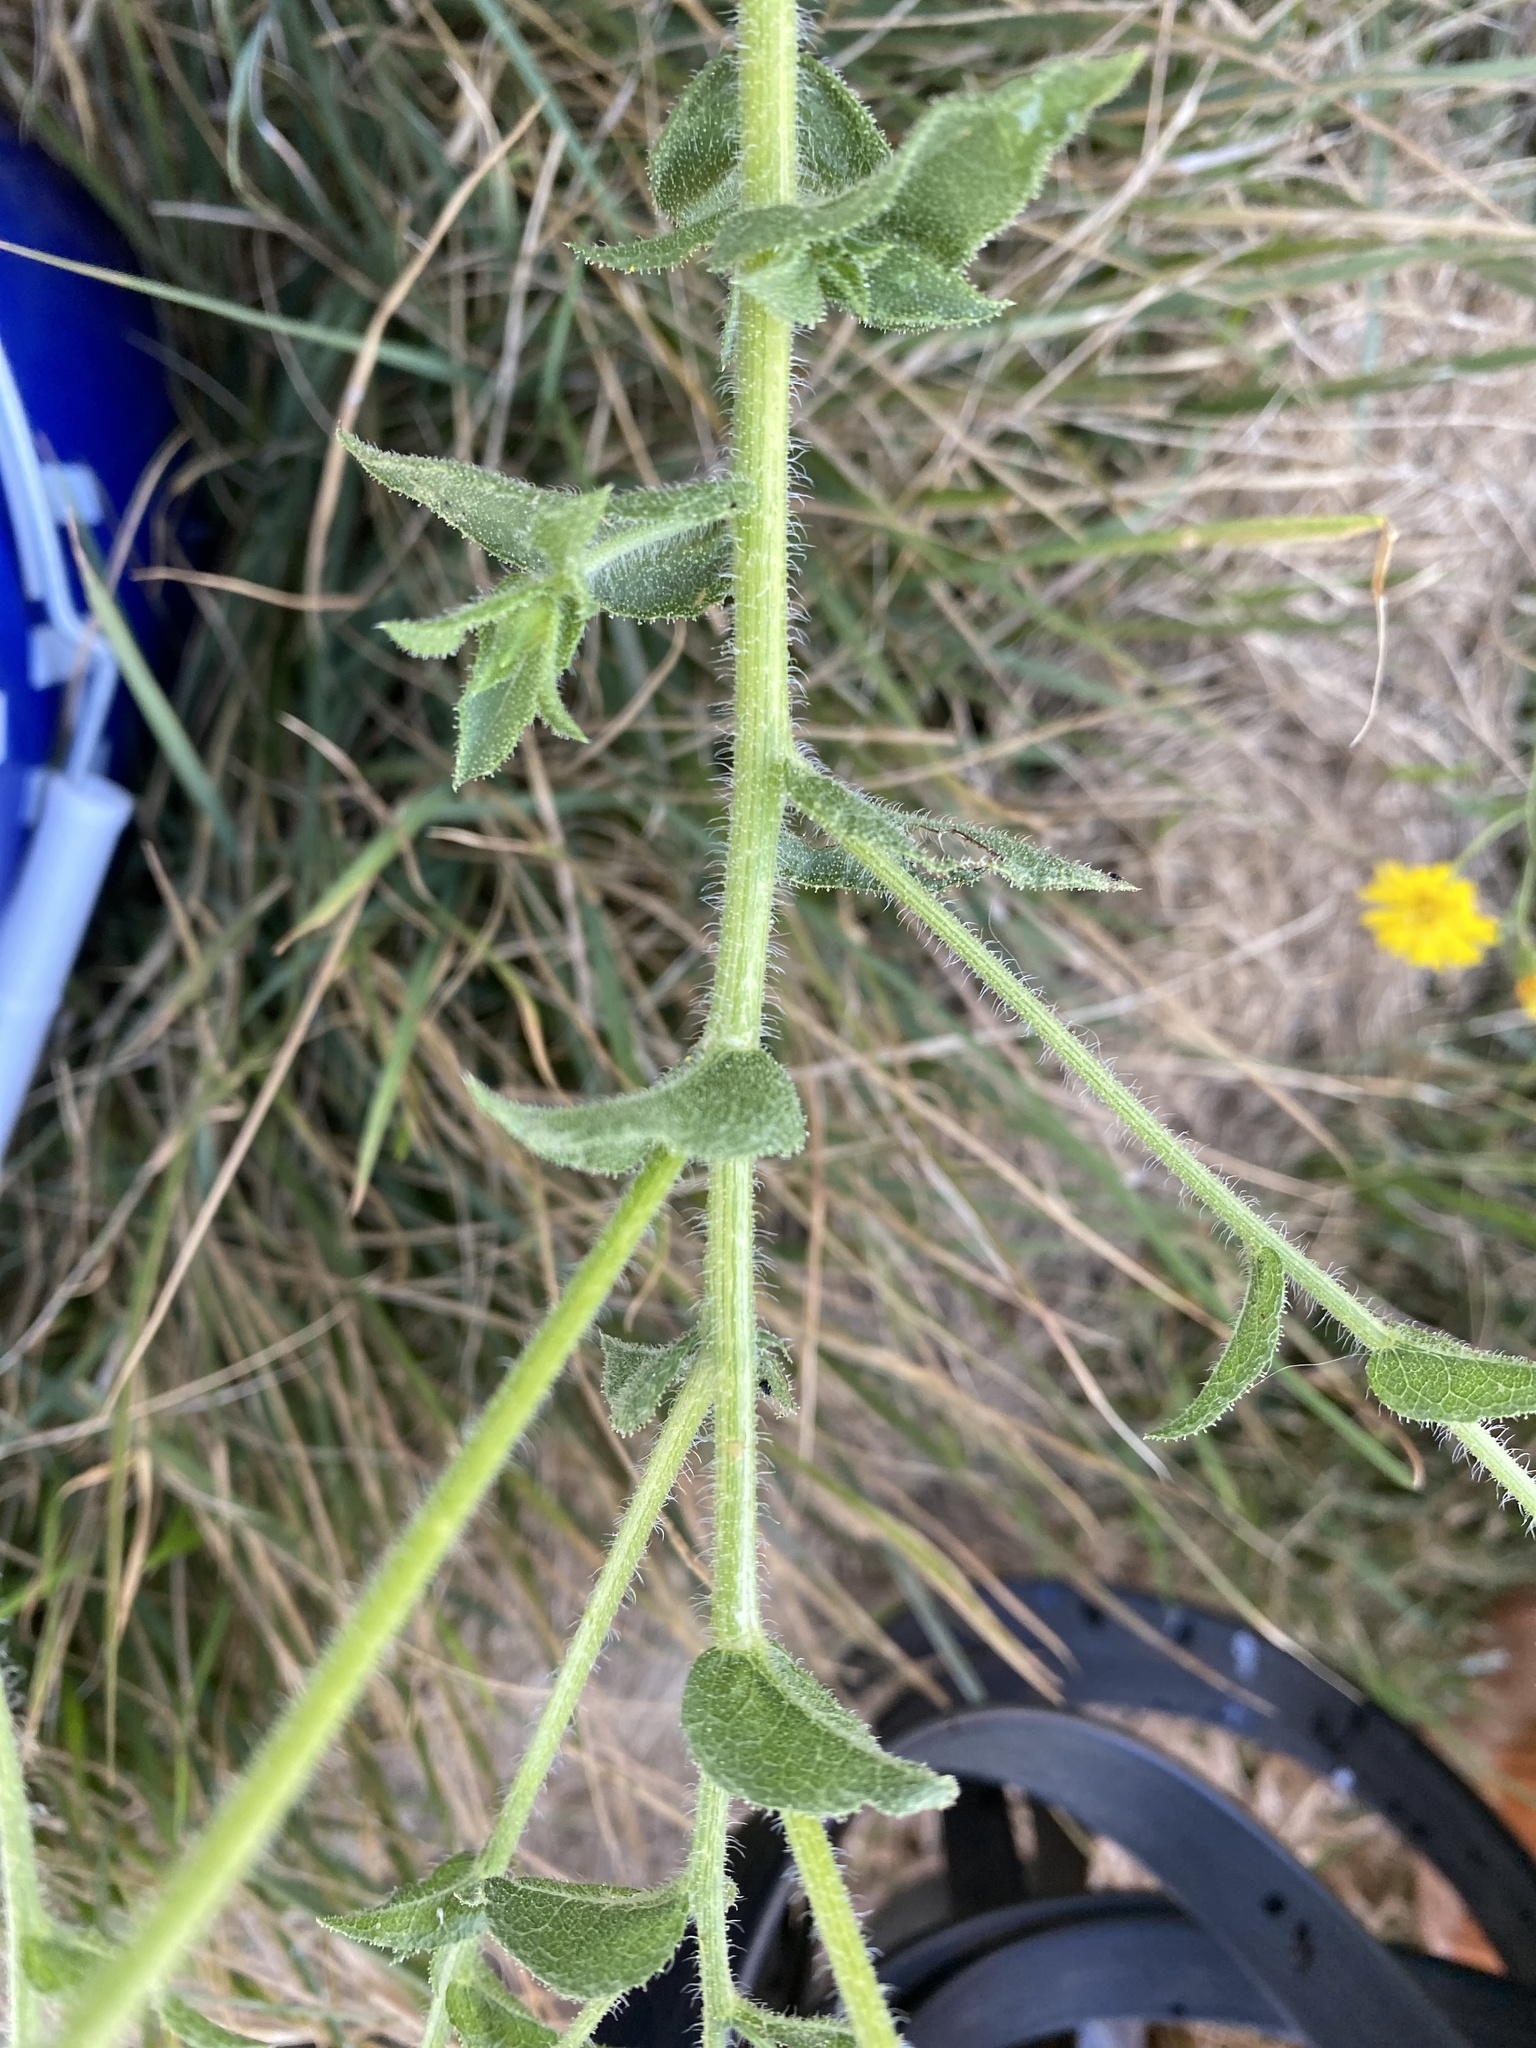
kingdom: Plantae
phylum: Tracheophyta
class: Magnoliopsida
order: Asterales
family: Asteraceae
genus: Heterotheca
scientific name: Heterotheca subaxillaris
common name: Camphorweed
